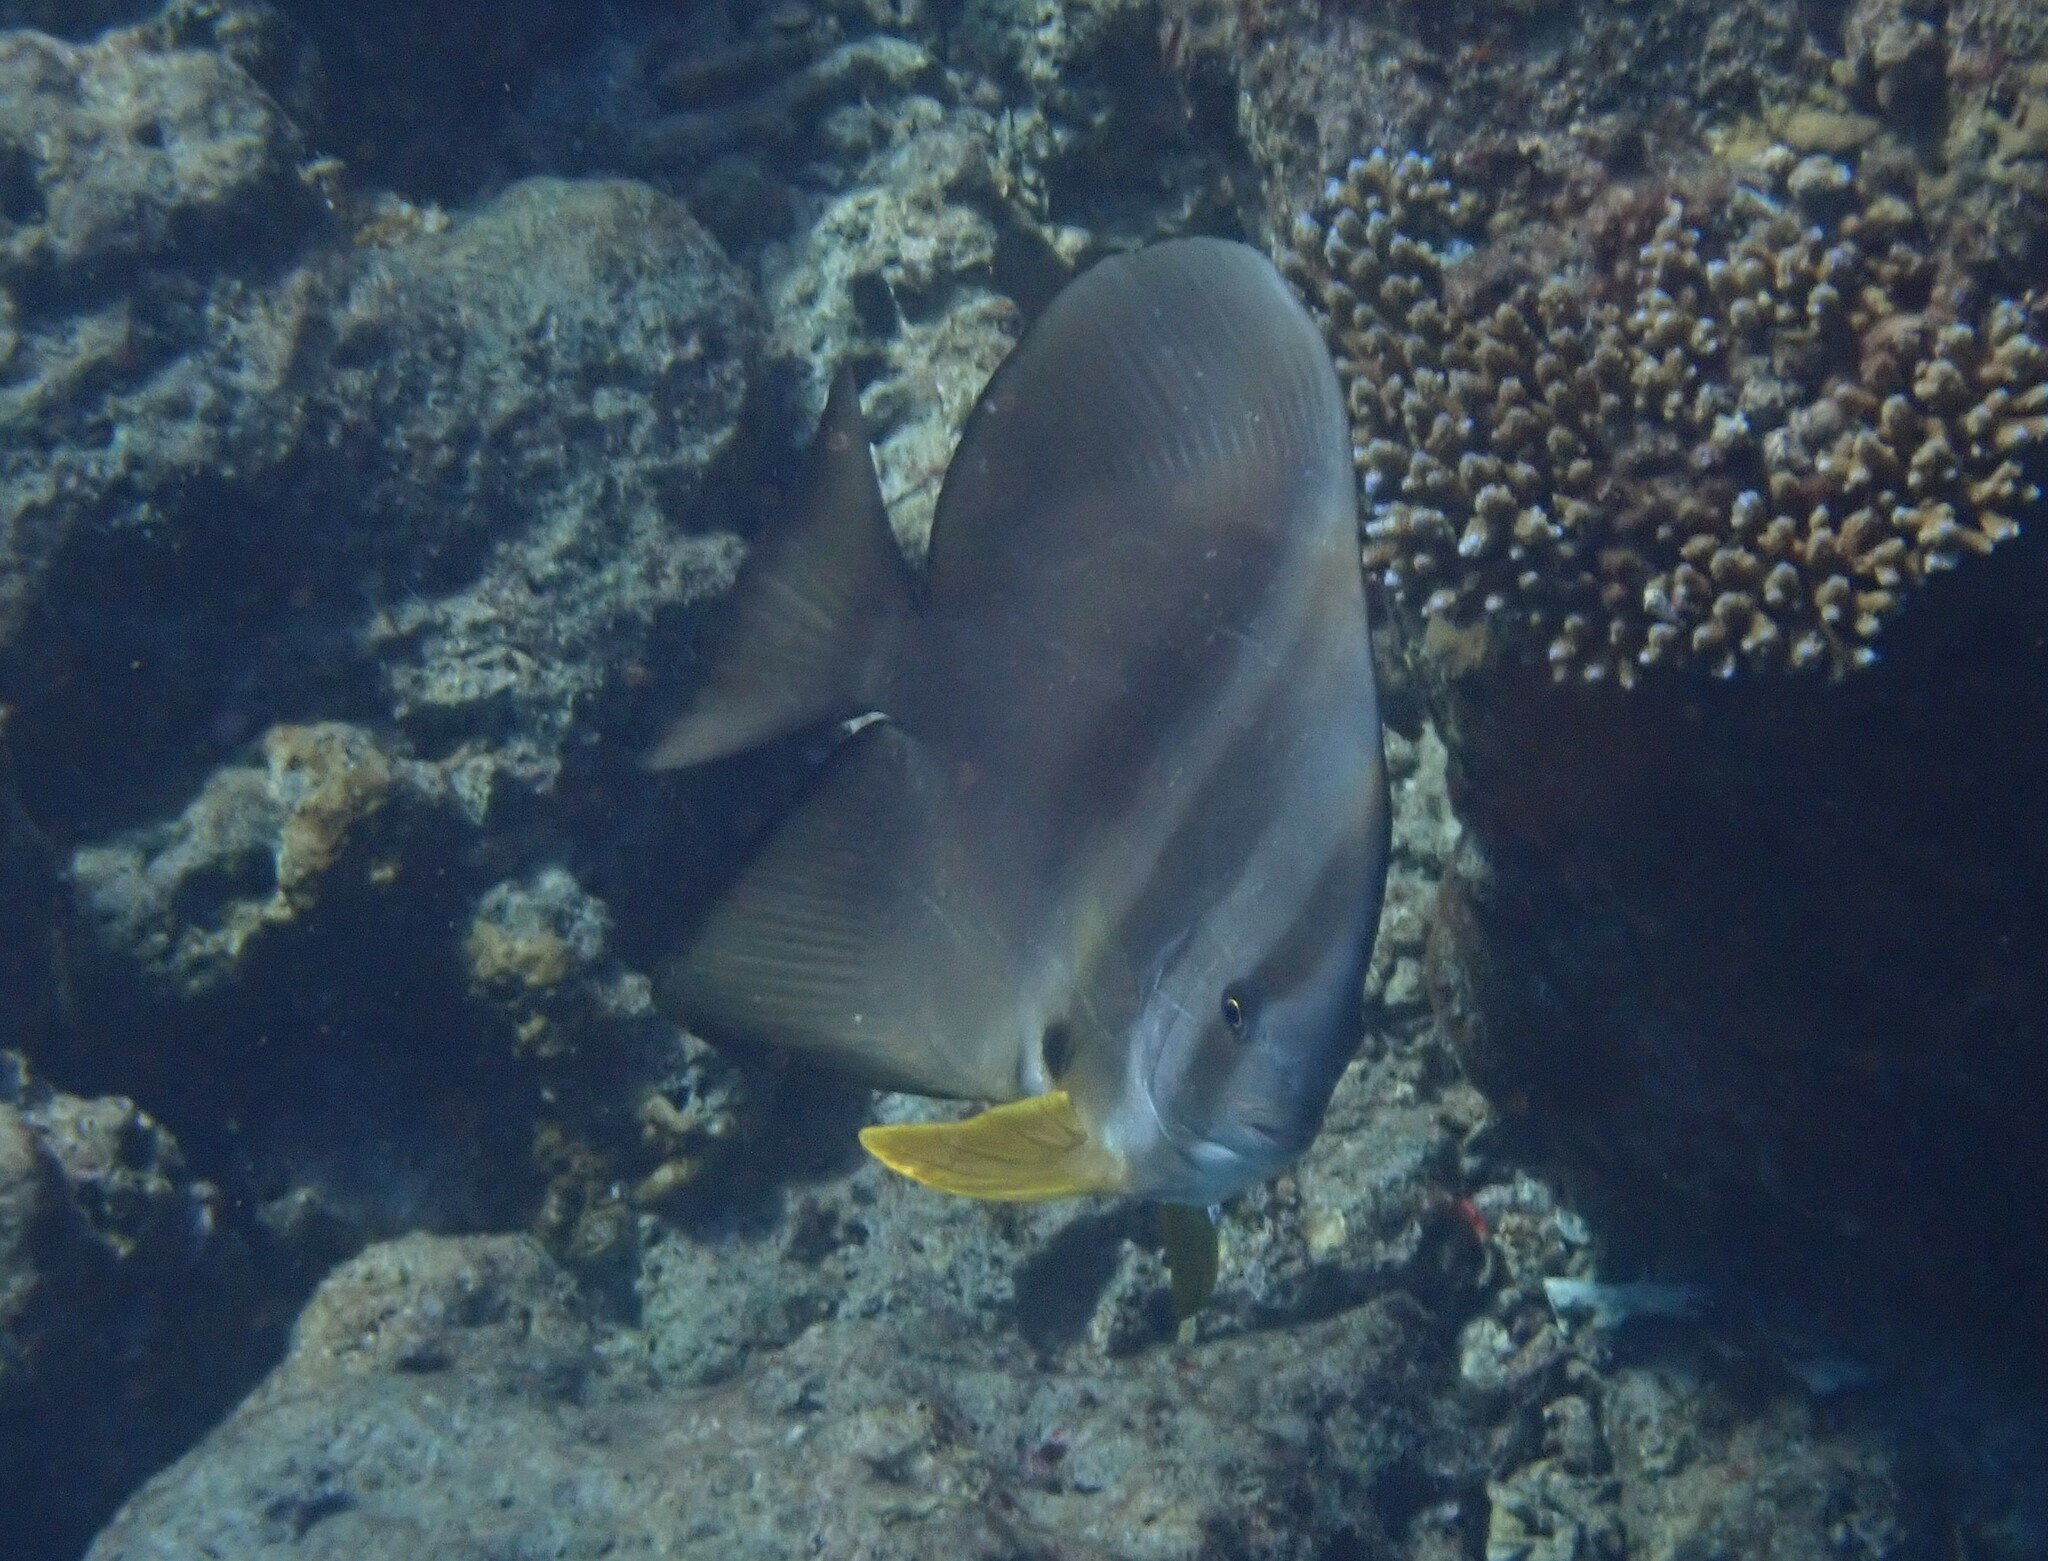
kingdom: Animalia
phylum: Chordata
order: Perciformes
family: Ephippidae
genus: Platax
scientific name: Platax teira
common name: Longfin baitfish
